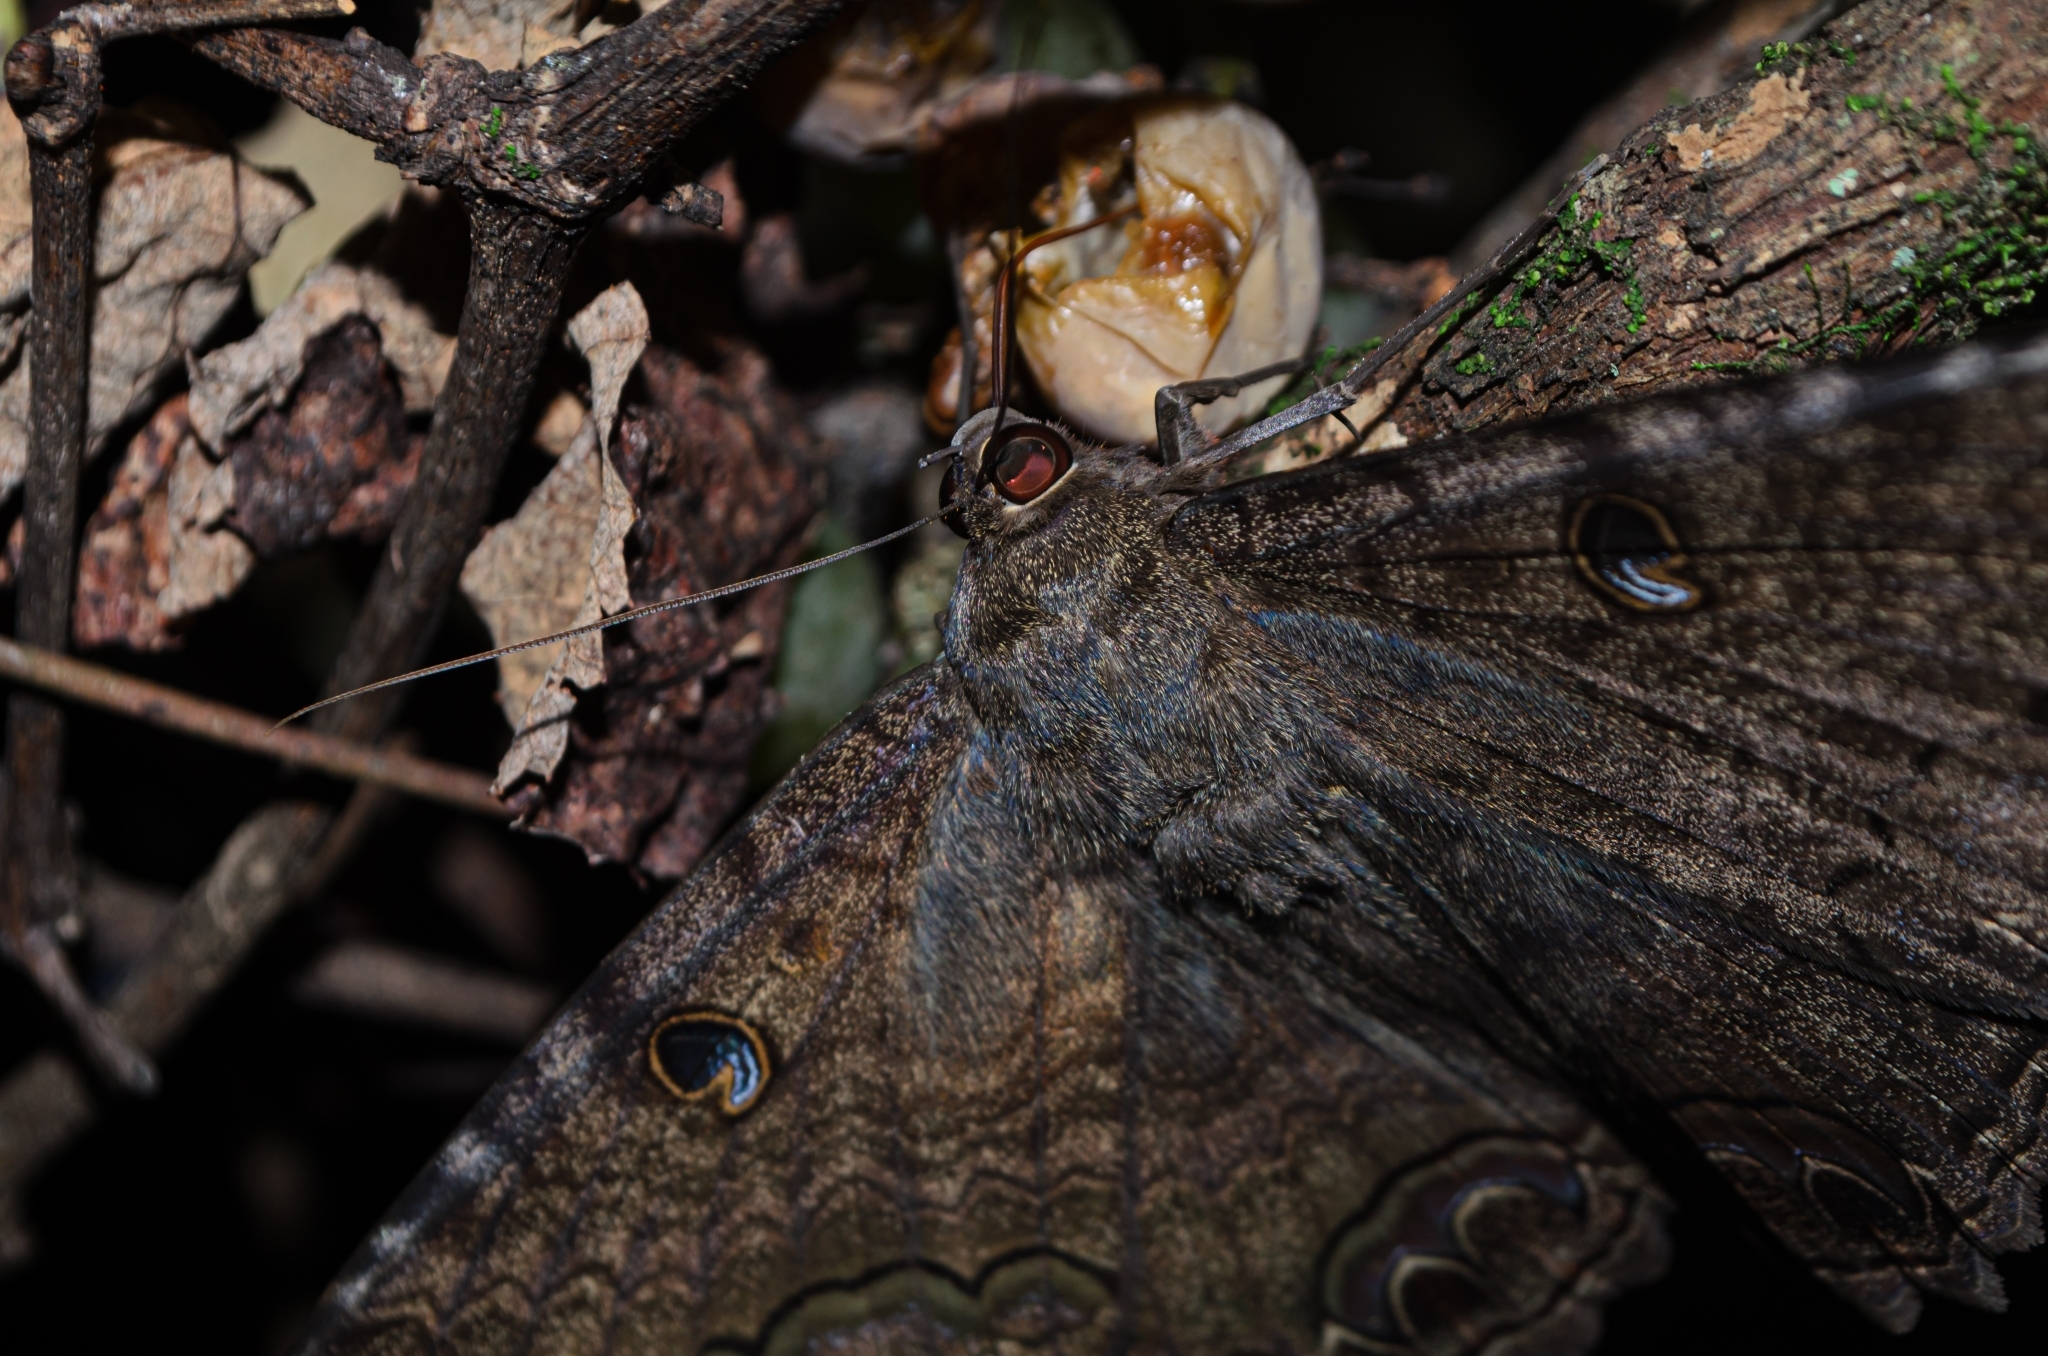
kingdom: Animalia
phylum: Arthropoda
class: Insecta
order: Lepidoptera
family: Erebidae
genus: Ascalapha
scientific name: Ascalapha odorata
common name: Black witch
